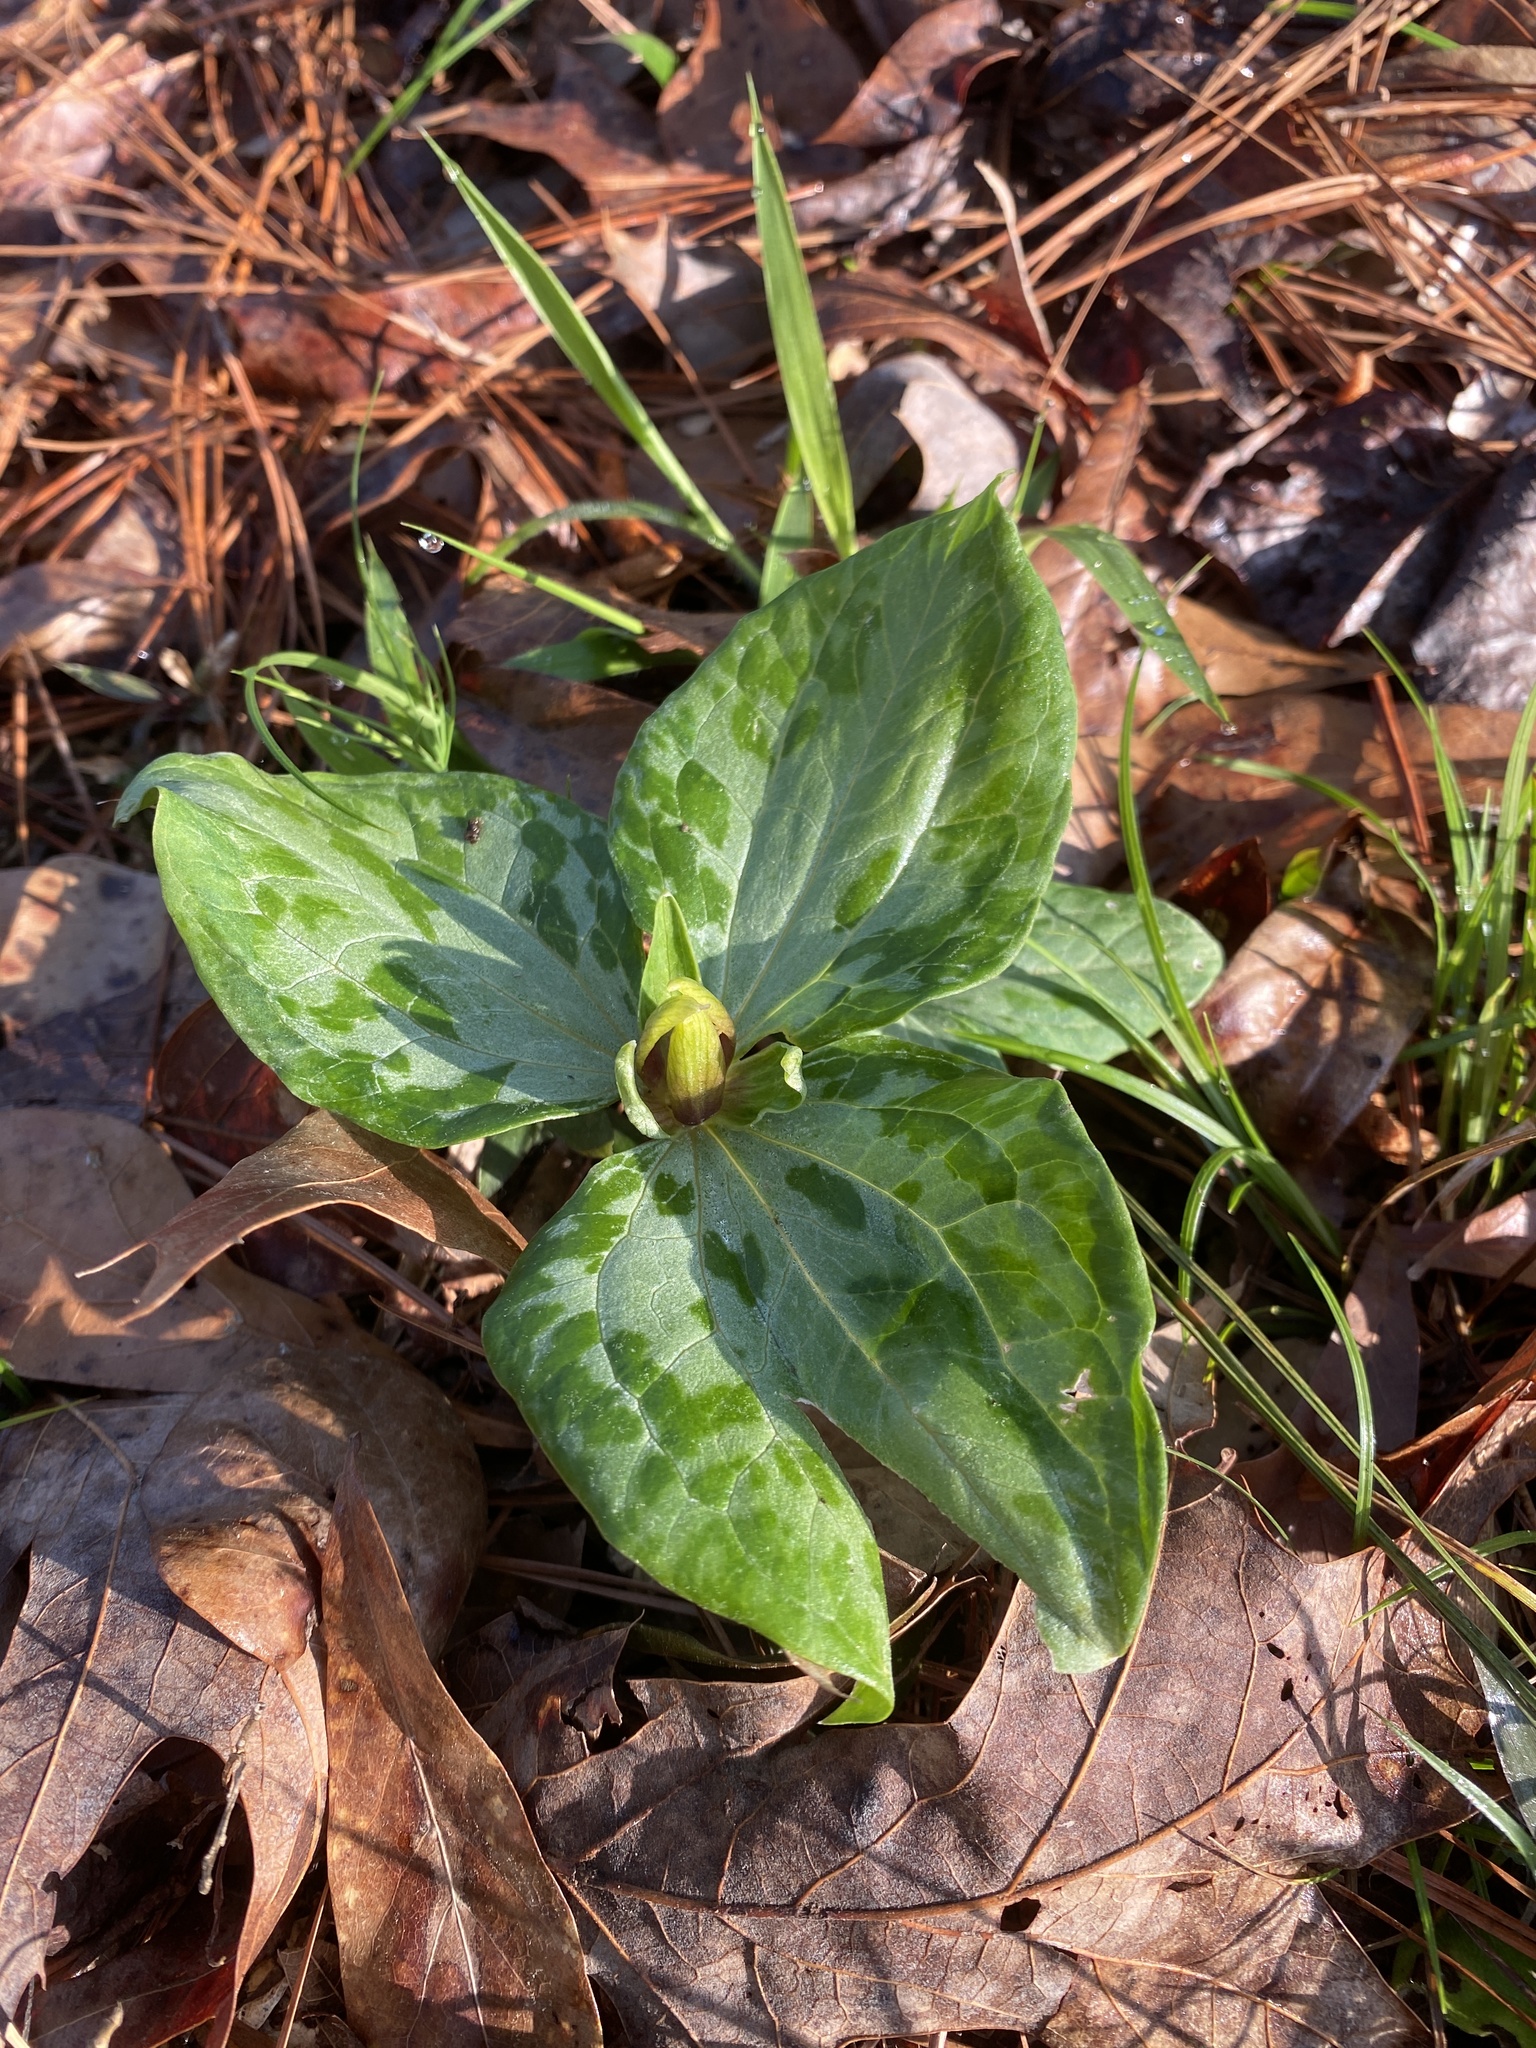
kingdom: Plantae
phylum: Tracheophyta
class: Liliopsida
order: Liliales
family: Melanthiaceae
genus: Trillium
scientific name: Trillium foetidissimum
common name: Mississippi river trillium
